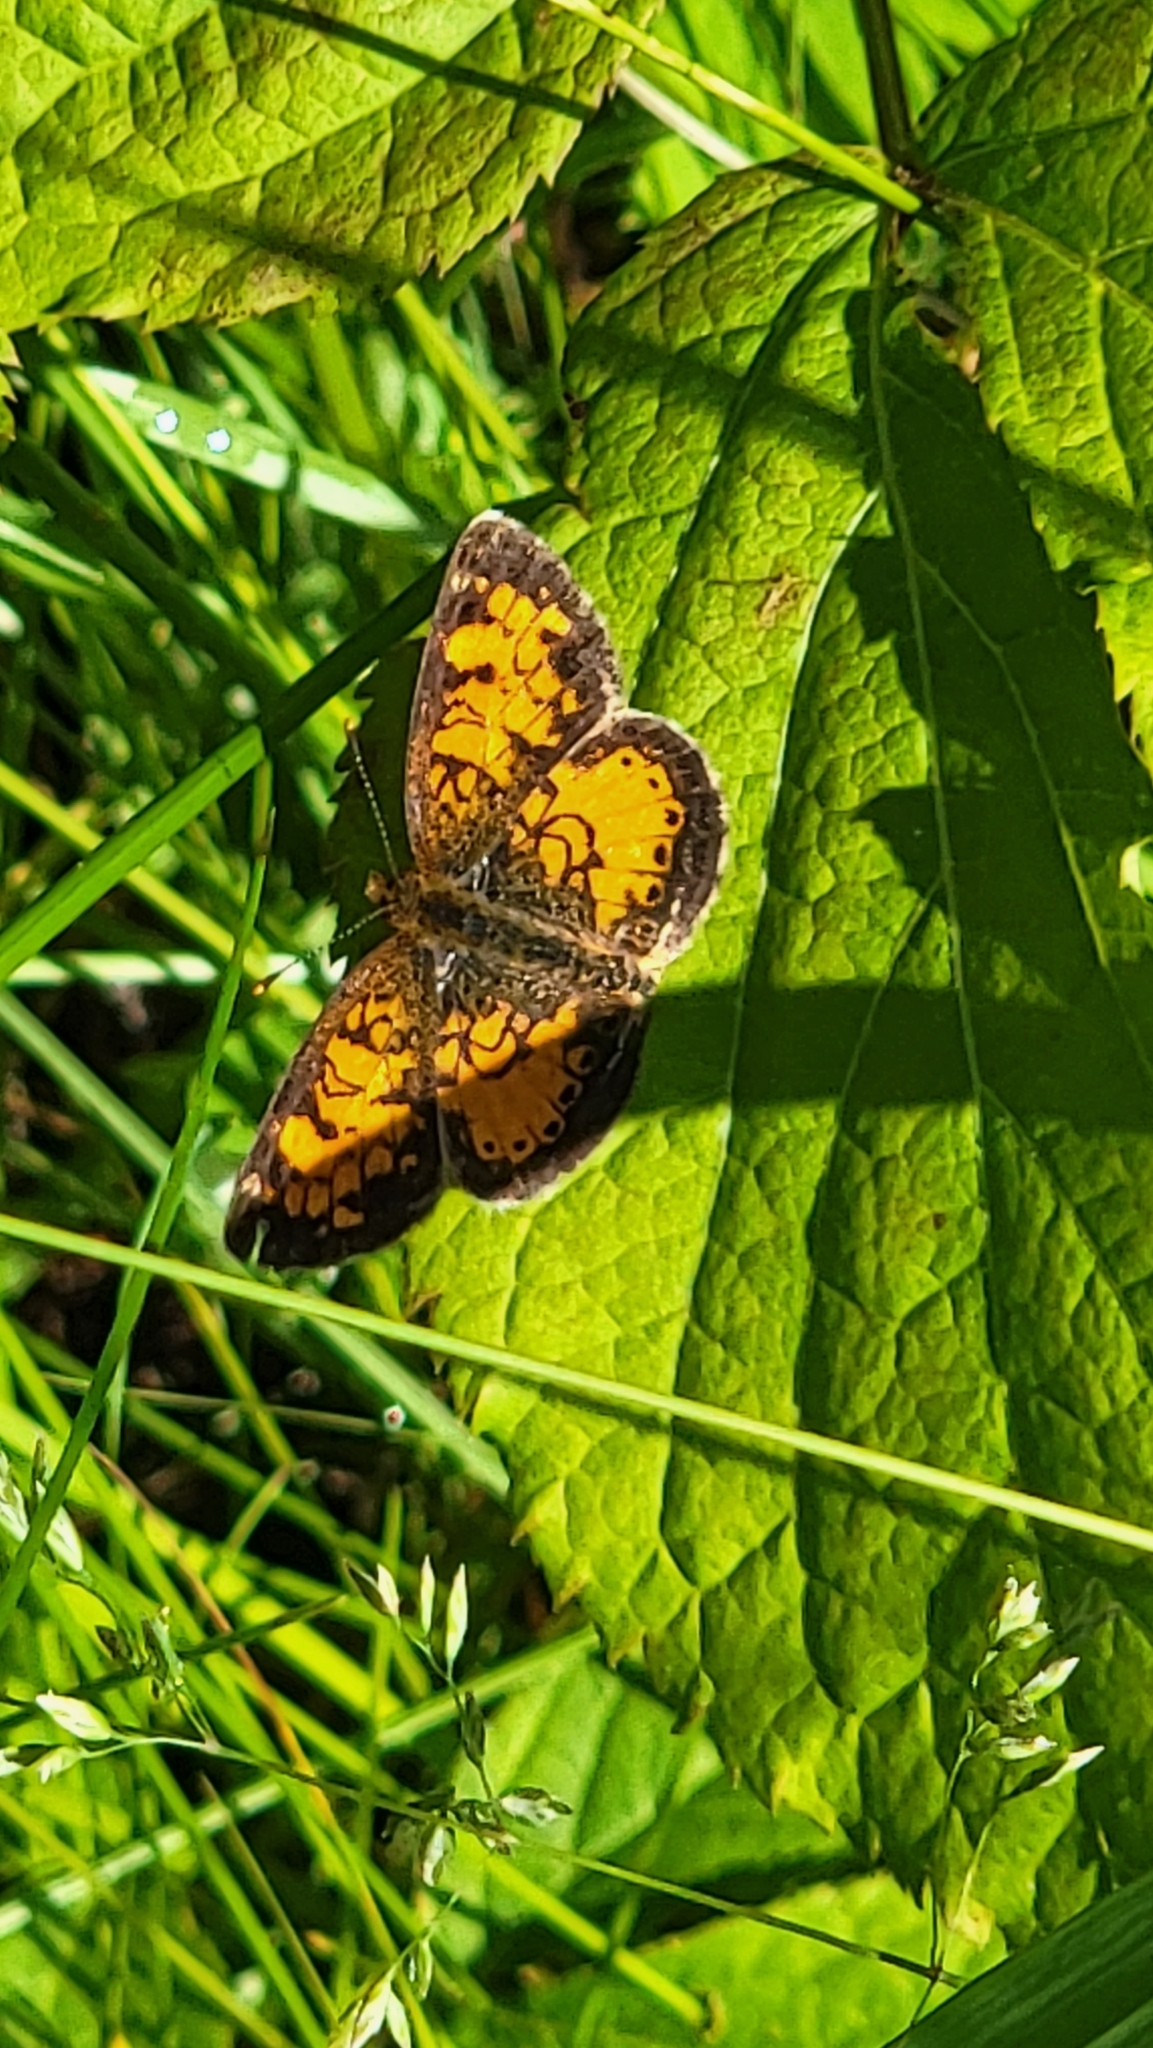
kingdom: Animalia
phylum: Arthropoda
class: Insecta
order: Lepidoptera
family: Nymphalidae
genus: Phyciodes
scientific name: Phyciodes tharos
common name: Pearl crescent
